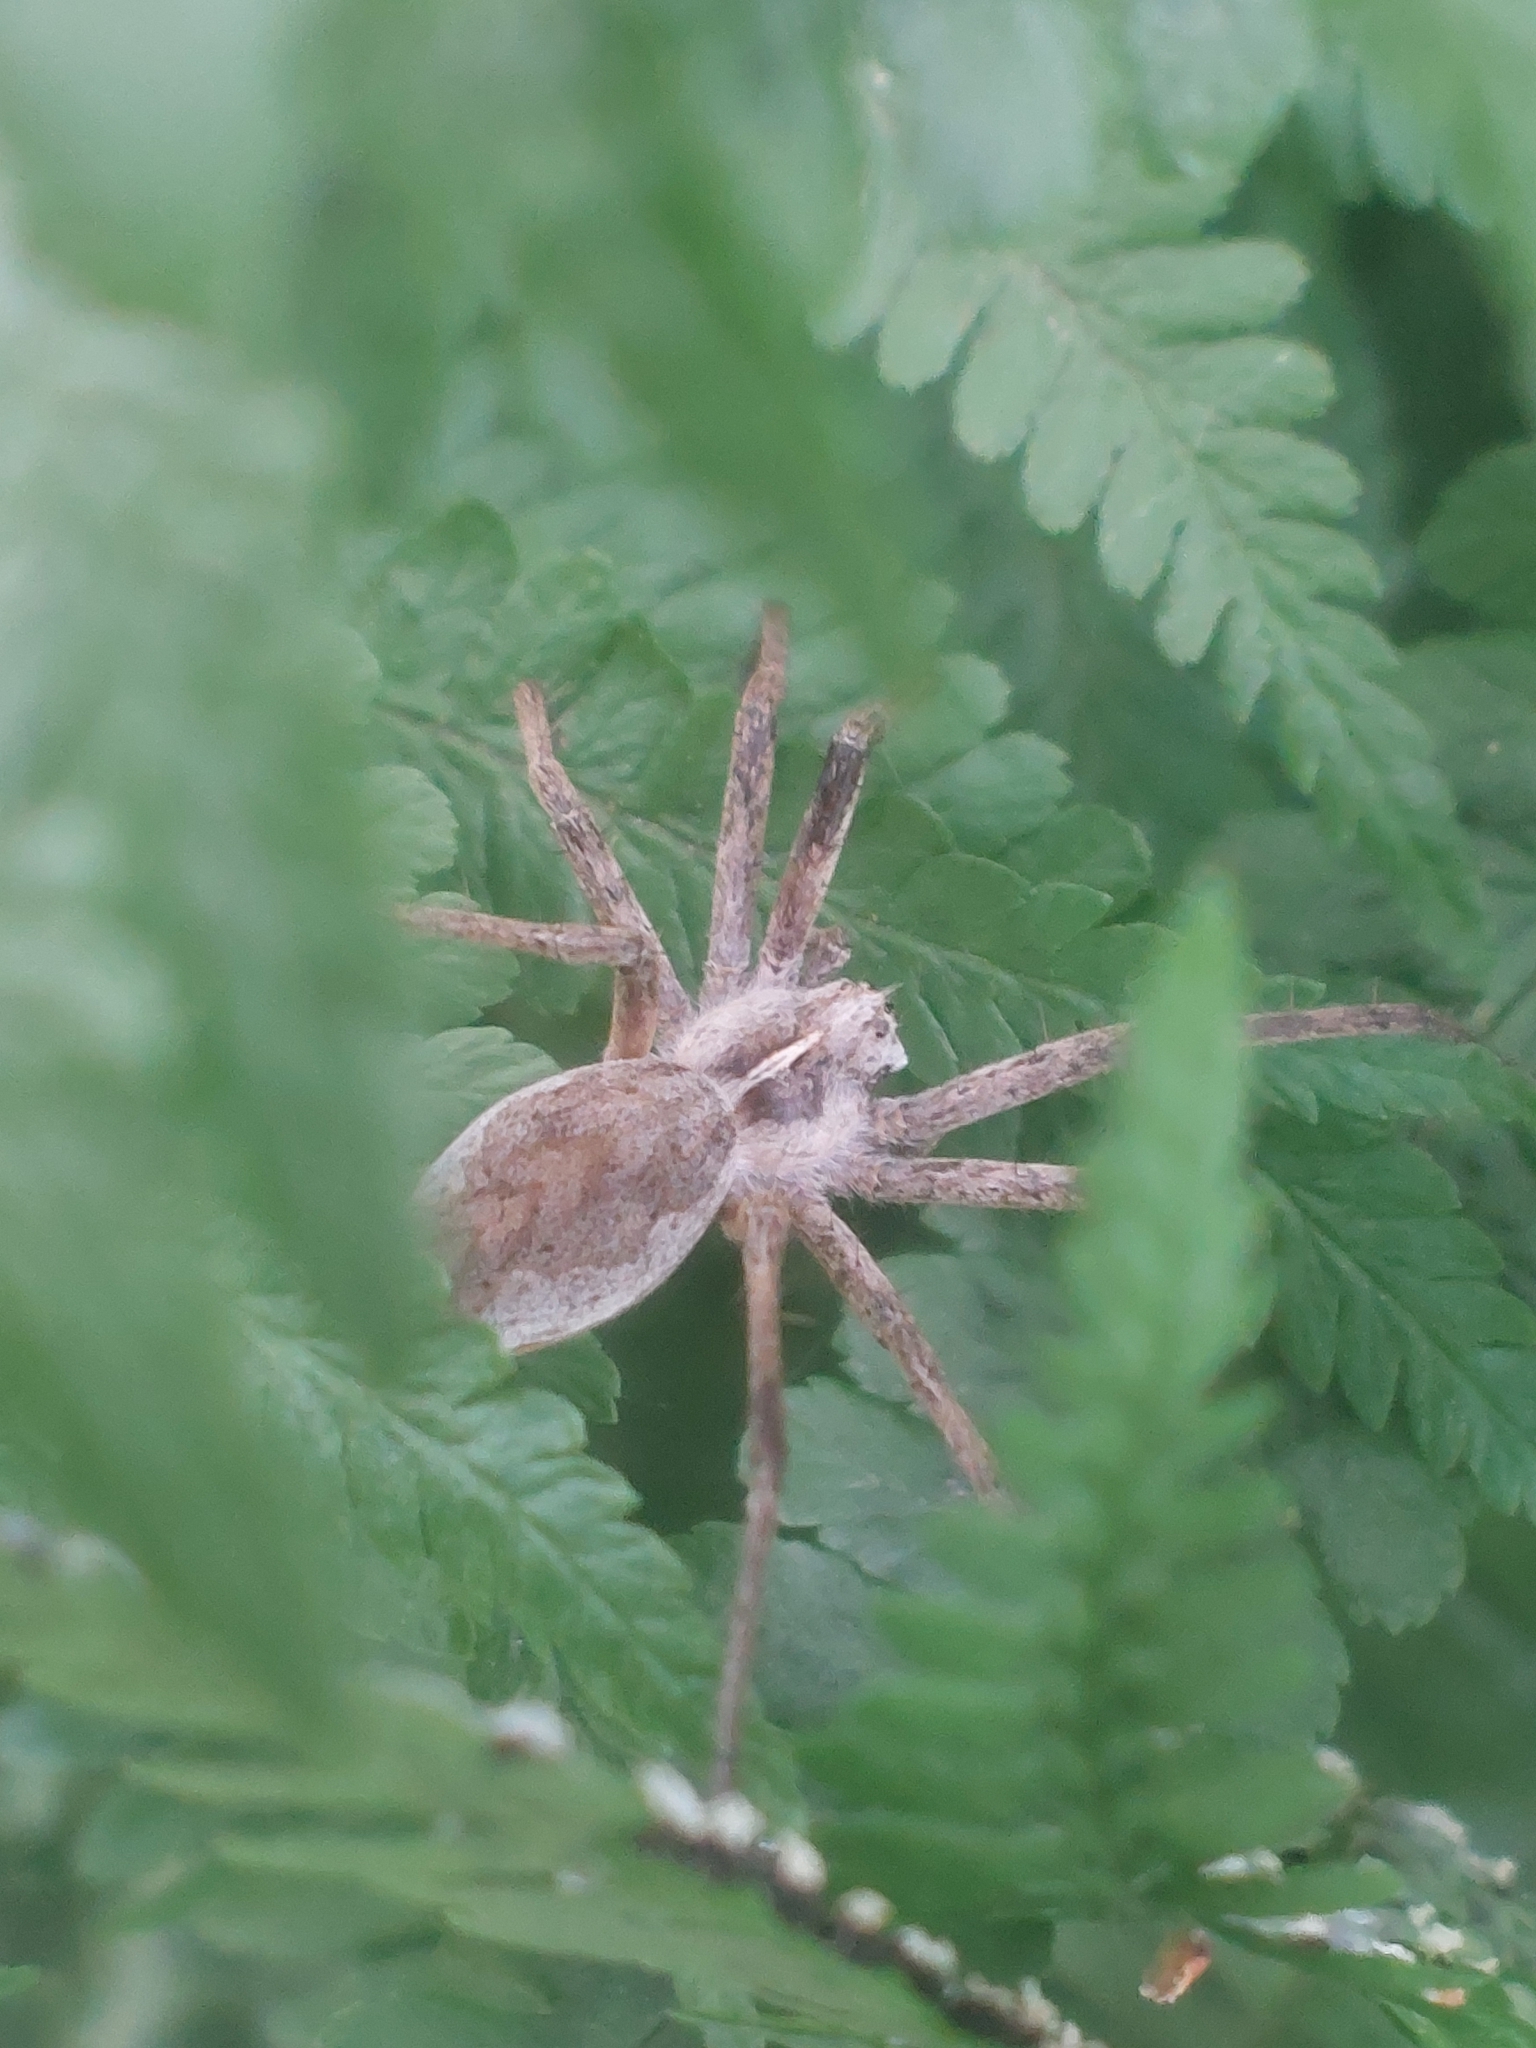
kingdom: Animalia
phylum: Arthropoda
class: Arachnida
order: Araneae
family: Pisauridae
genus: Pisaura
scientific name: Pisaura mirabilis
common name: Tent spider
